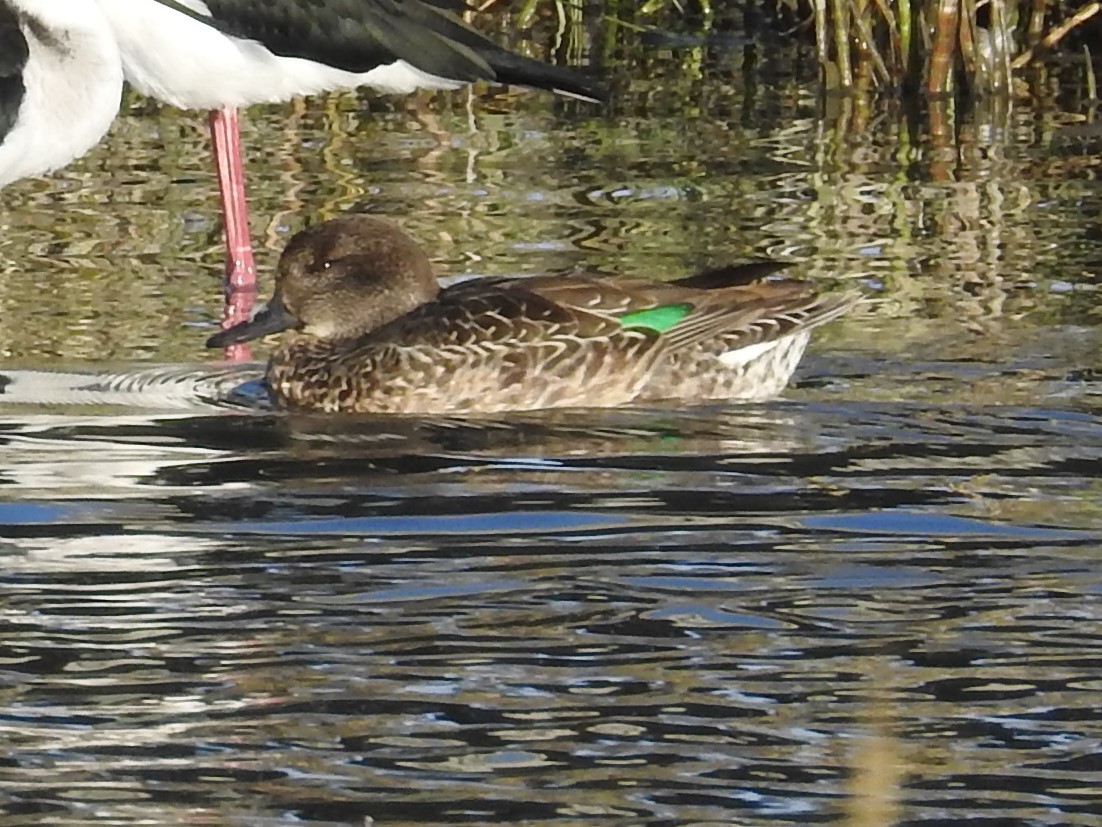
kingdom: Animalia
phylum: Chordata
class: Aves
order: Anseriformes
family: Anatidae
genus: Anas
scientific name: Anas crecca
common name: Eurasian teal
